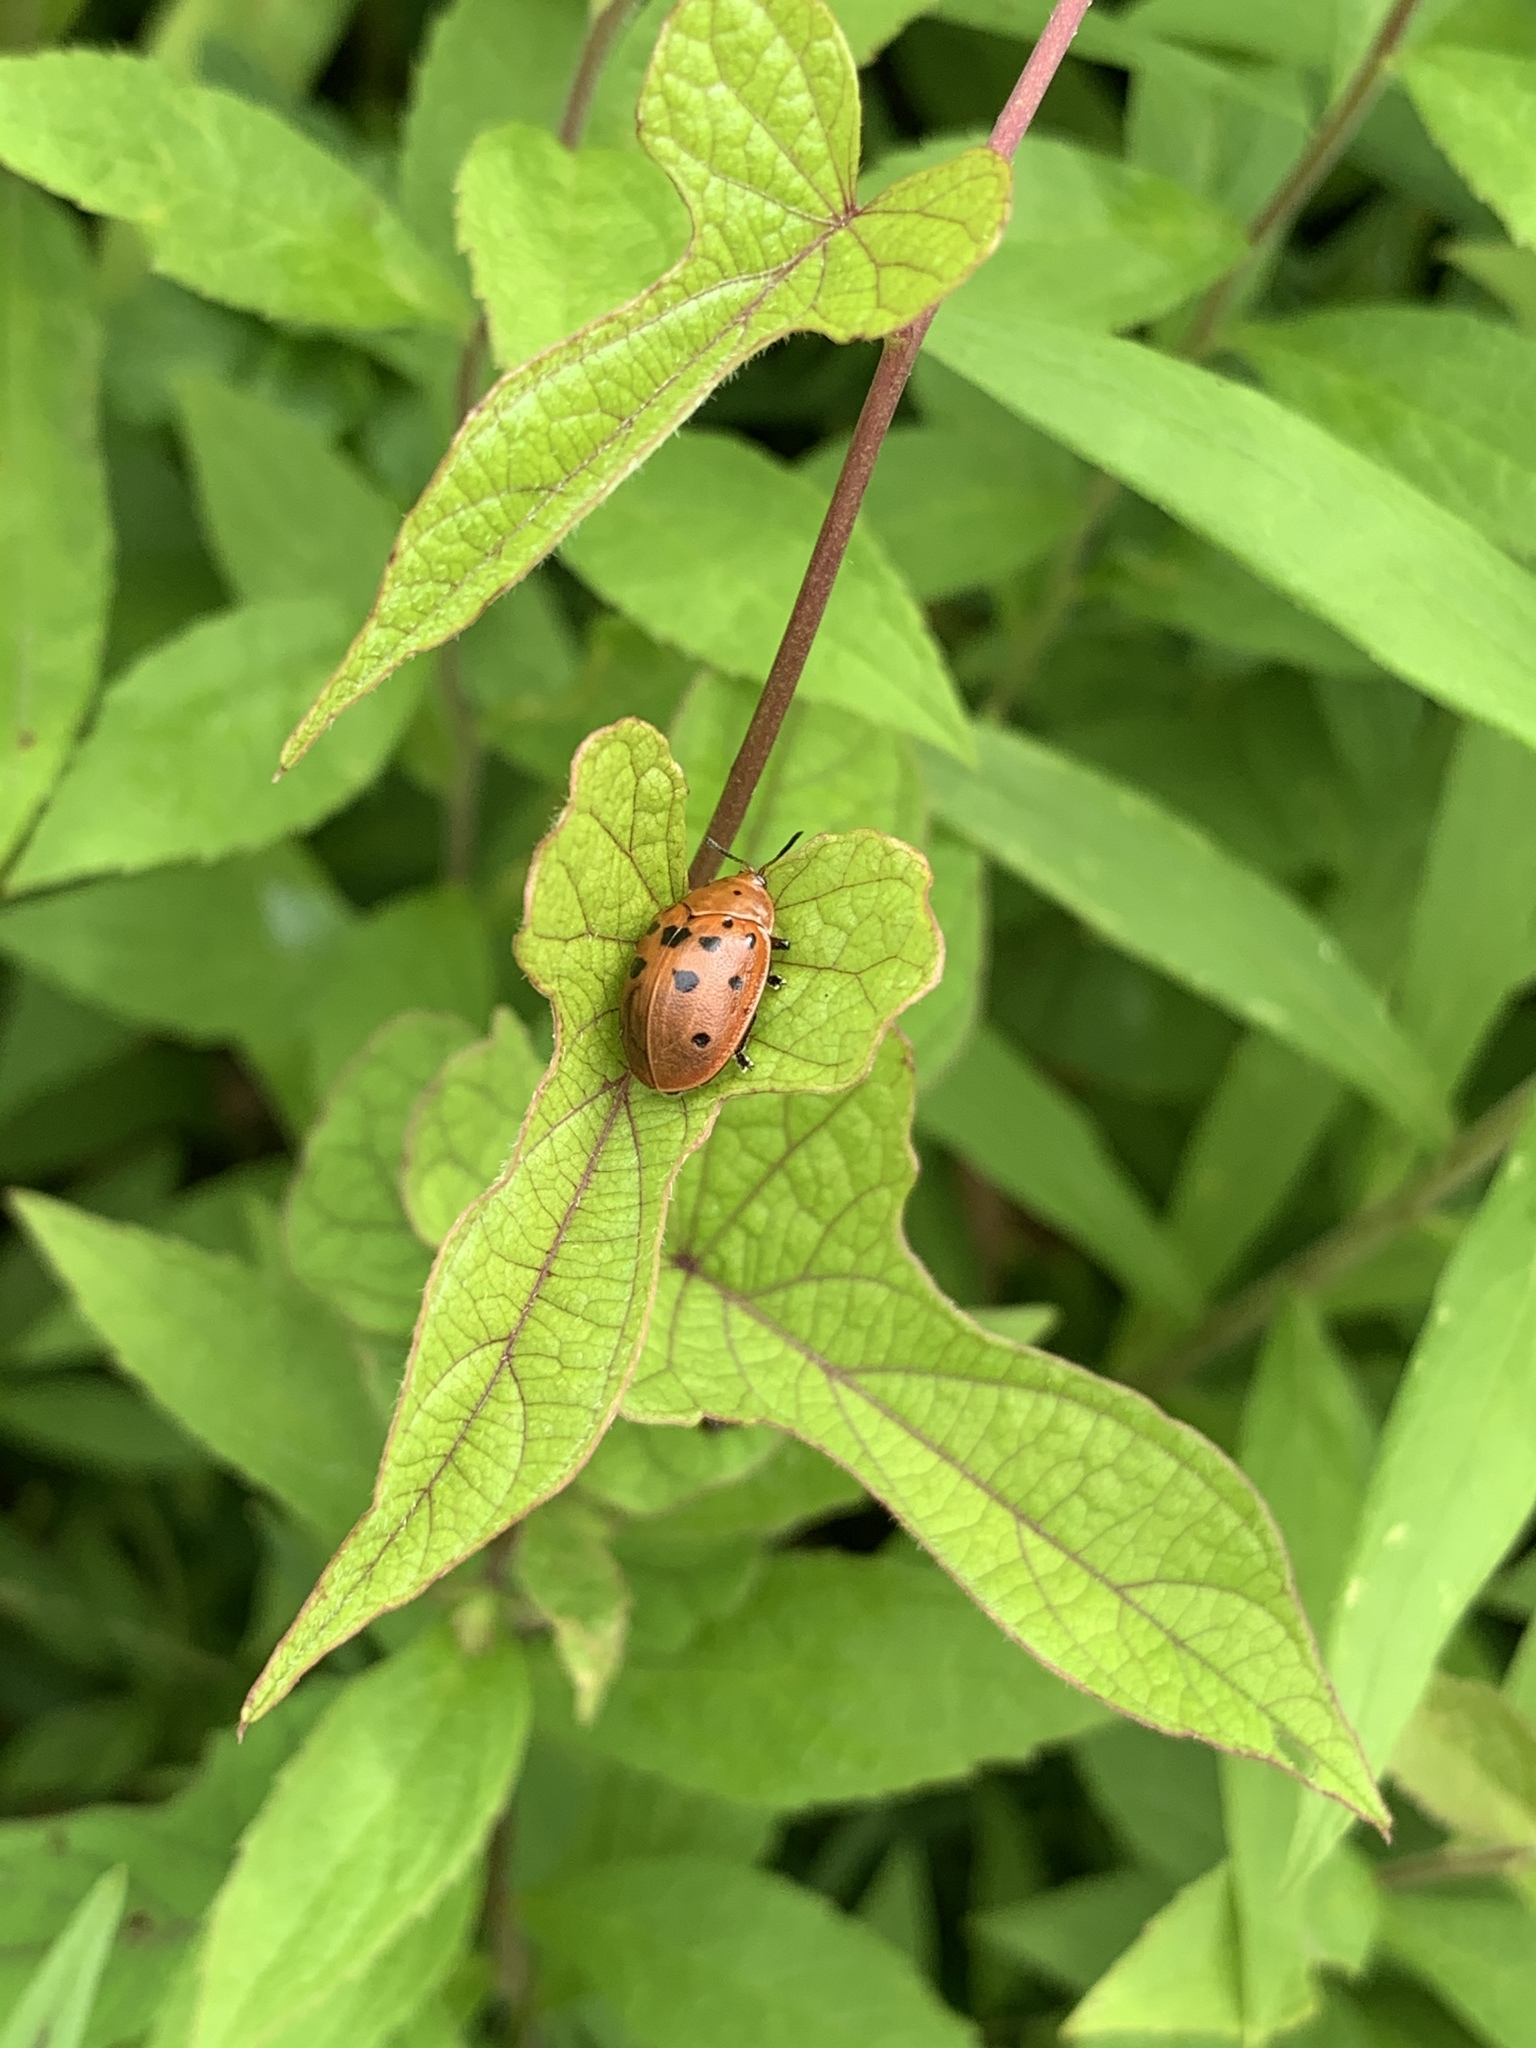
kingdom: Animalia
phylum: Arthropoda
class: Insecta
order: Coleoptera
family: Chrysomelidae
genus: Chelymorpha
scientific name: Chelymorpha cassidea
